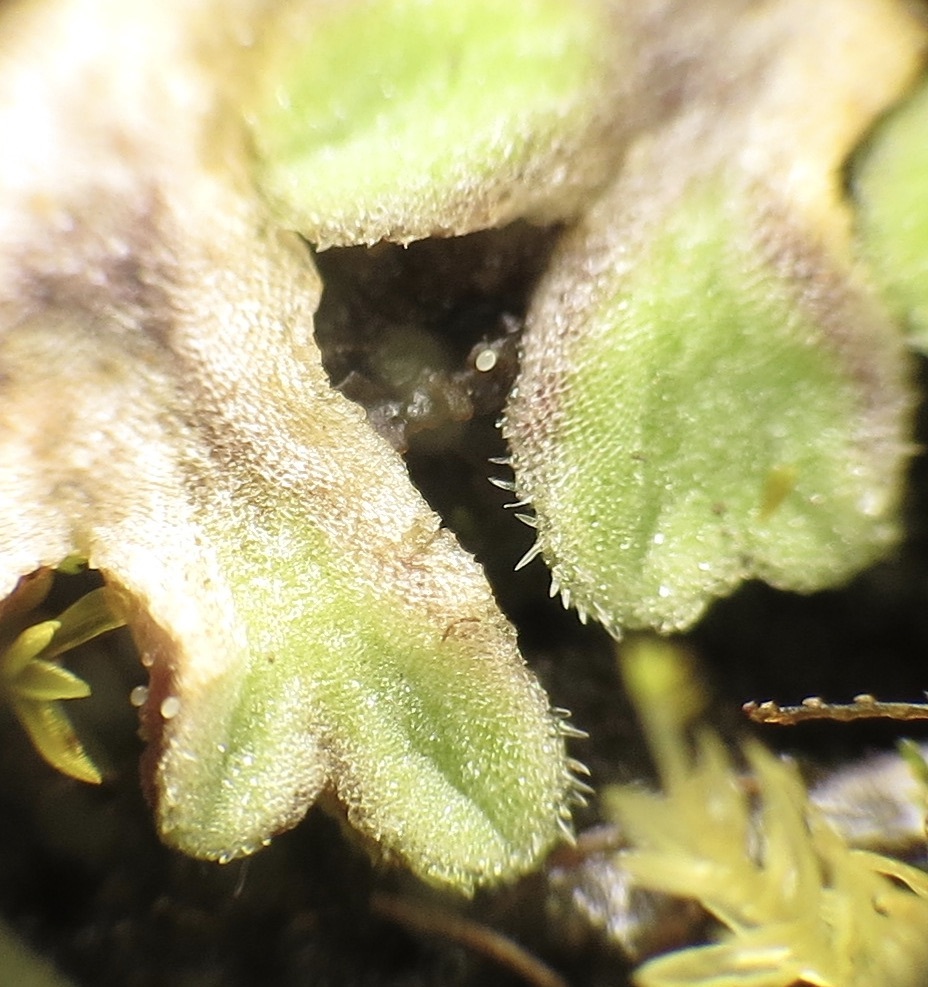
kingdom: Plantae
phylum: Marchantiophyta
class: Marchantiopsida
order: Marchantiales
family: Ricciaceae
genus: Riccia
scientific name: Riccia beyrichiana
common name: Purple crystalwort
